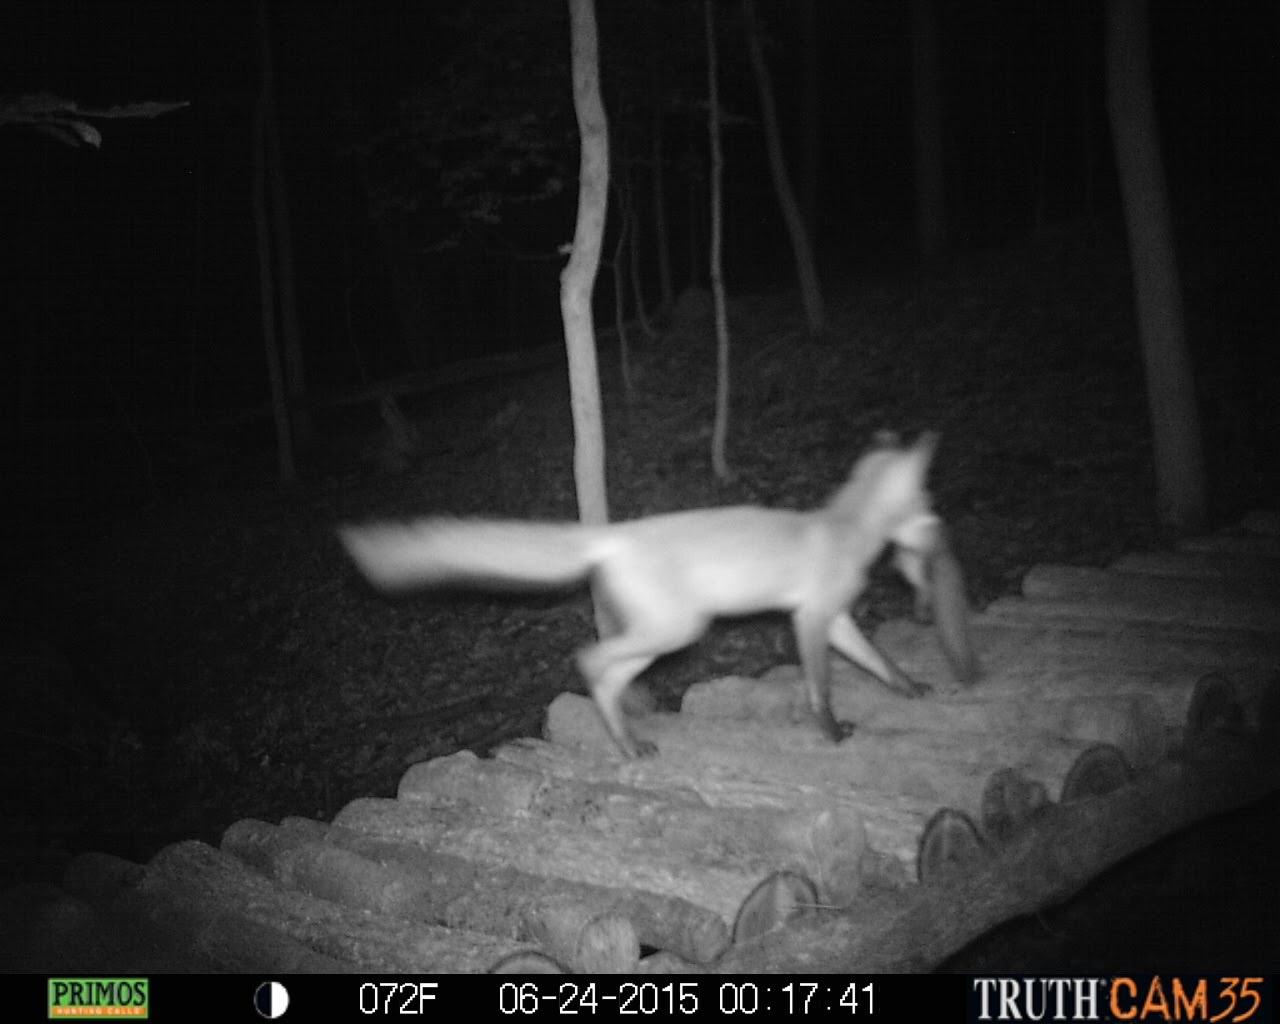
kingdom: Animalia
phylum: Chordata
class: Mammalia
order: Carnivora
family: Canidae
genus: Vulpes
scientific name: Vulpes vulpes
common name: Red fox
